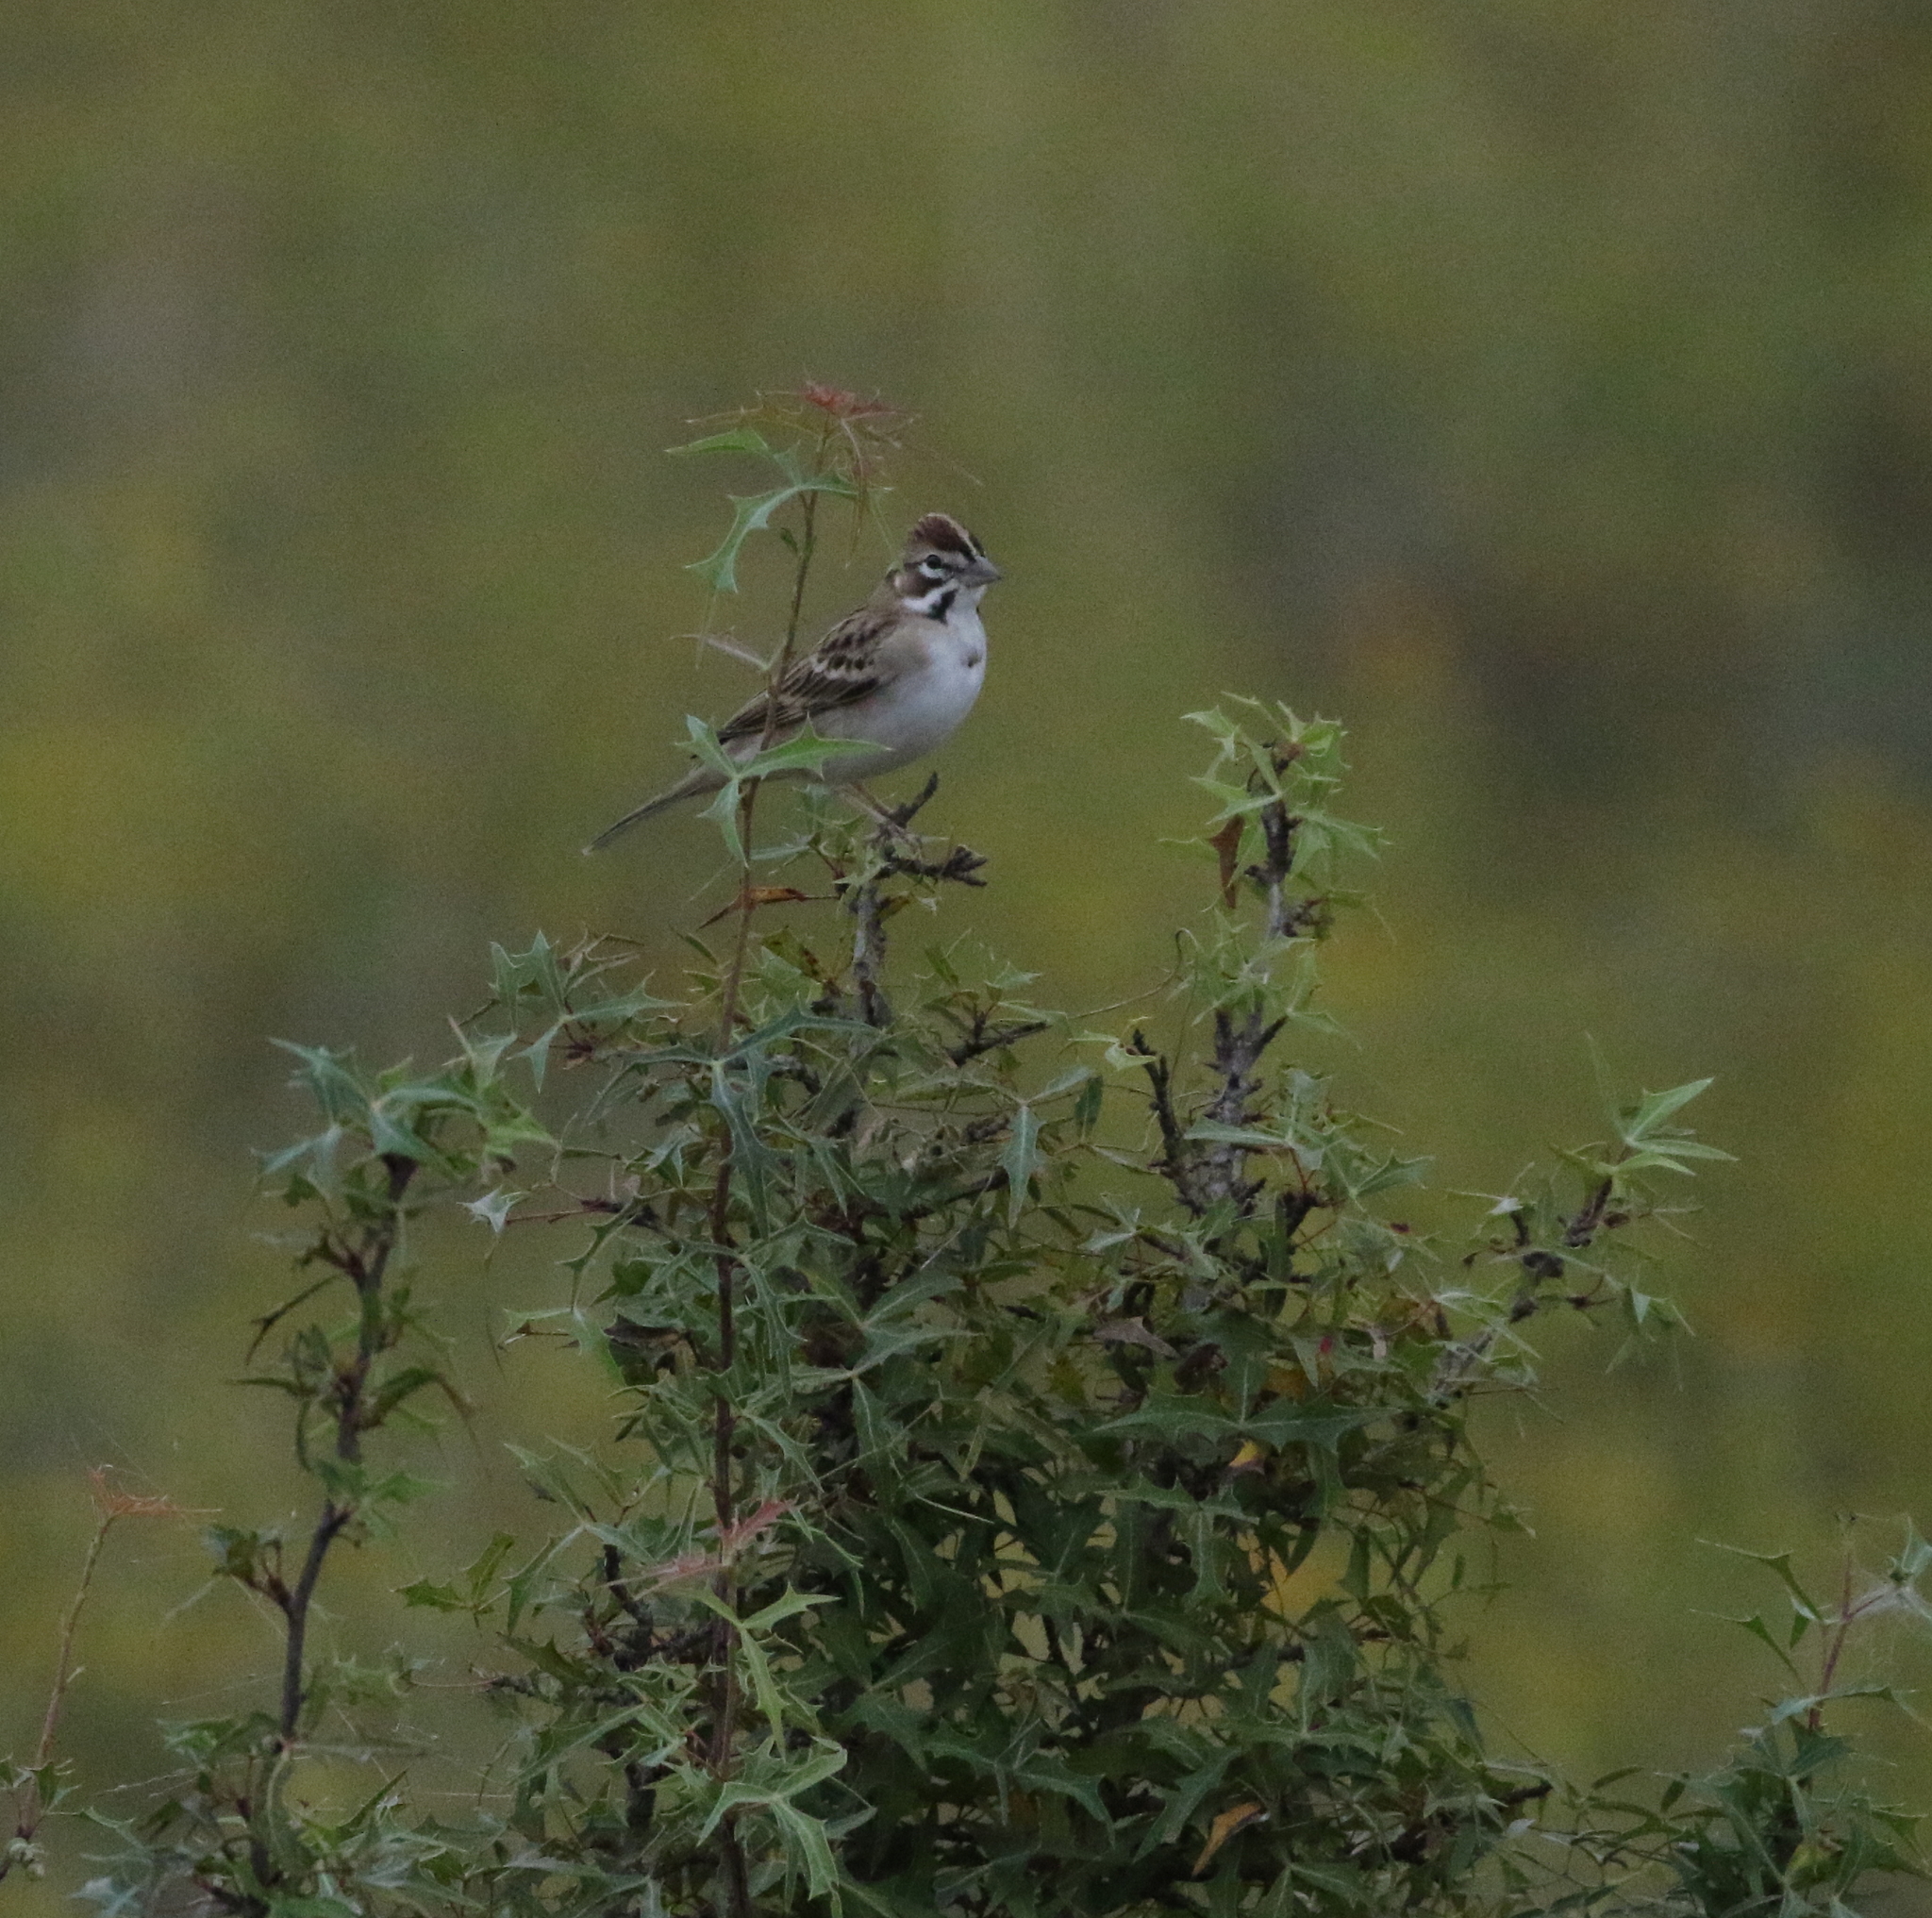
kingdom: Animalia
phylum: Chordata
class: Aves
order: Passeriformes
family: Passerellidae
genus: Chondestes
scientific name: Chondestes grammacus
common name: Lark sparrow
